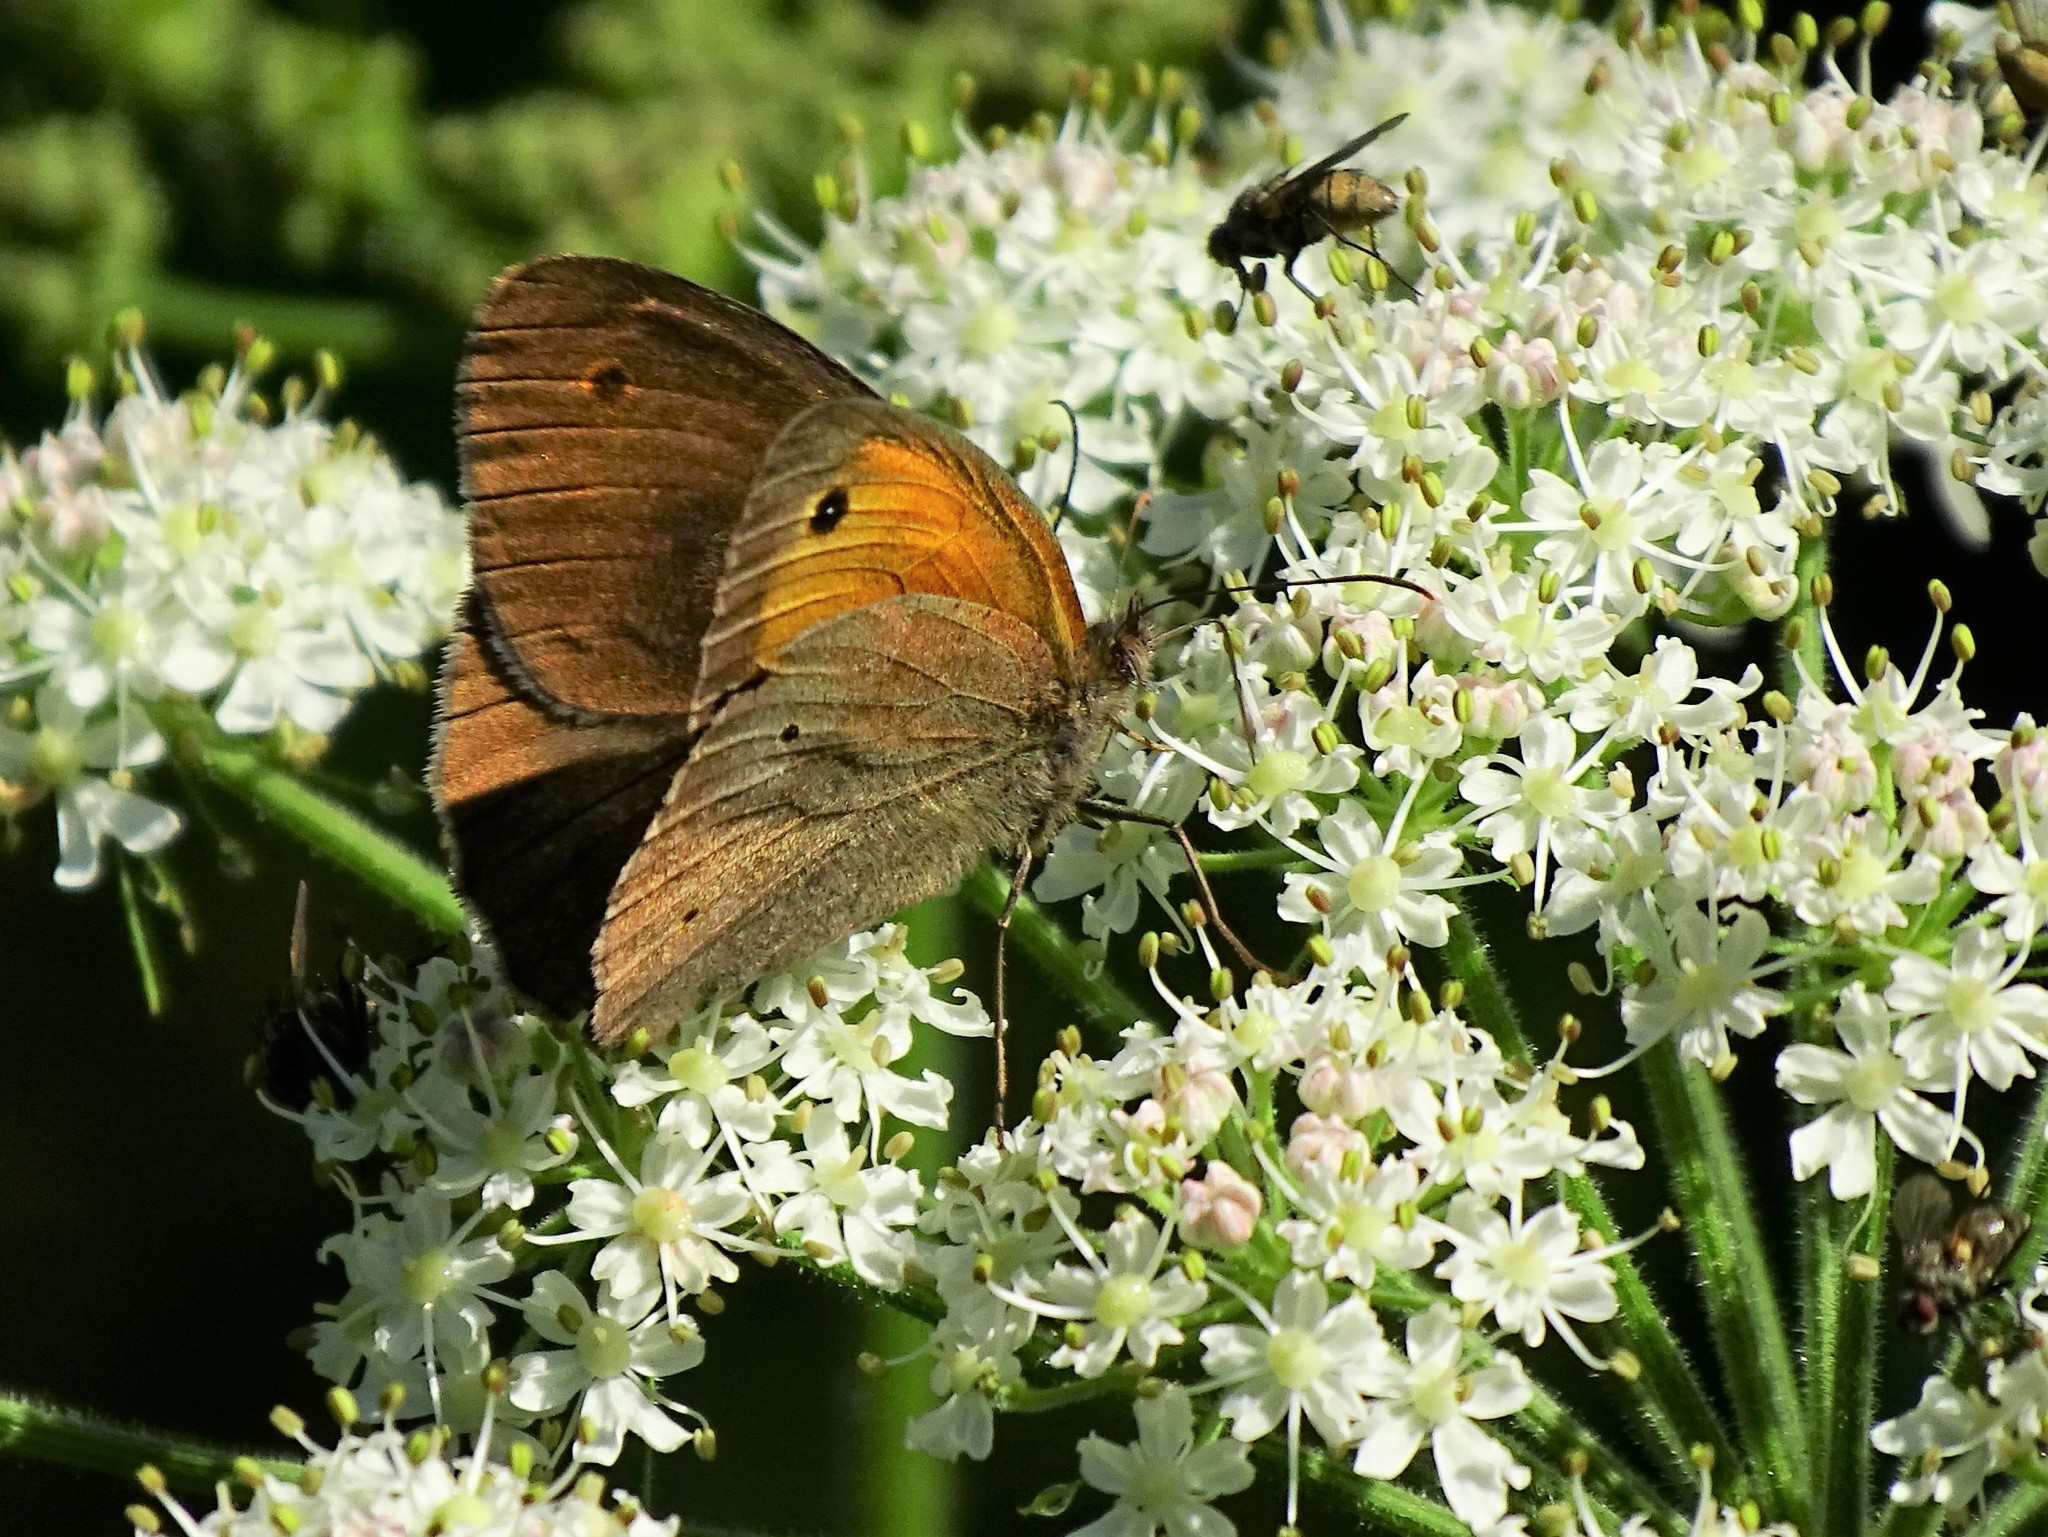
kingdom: Animalia
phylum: Arthropoda
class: Insecta
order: Lepidoptera
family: Nymphalidae
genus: Maniola
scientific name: Maniola jurtina
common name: Meadow brown
